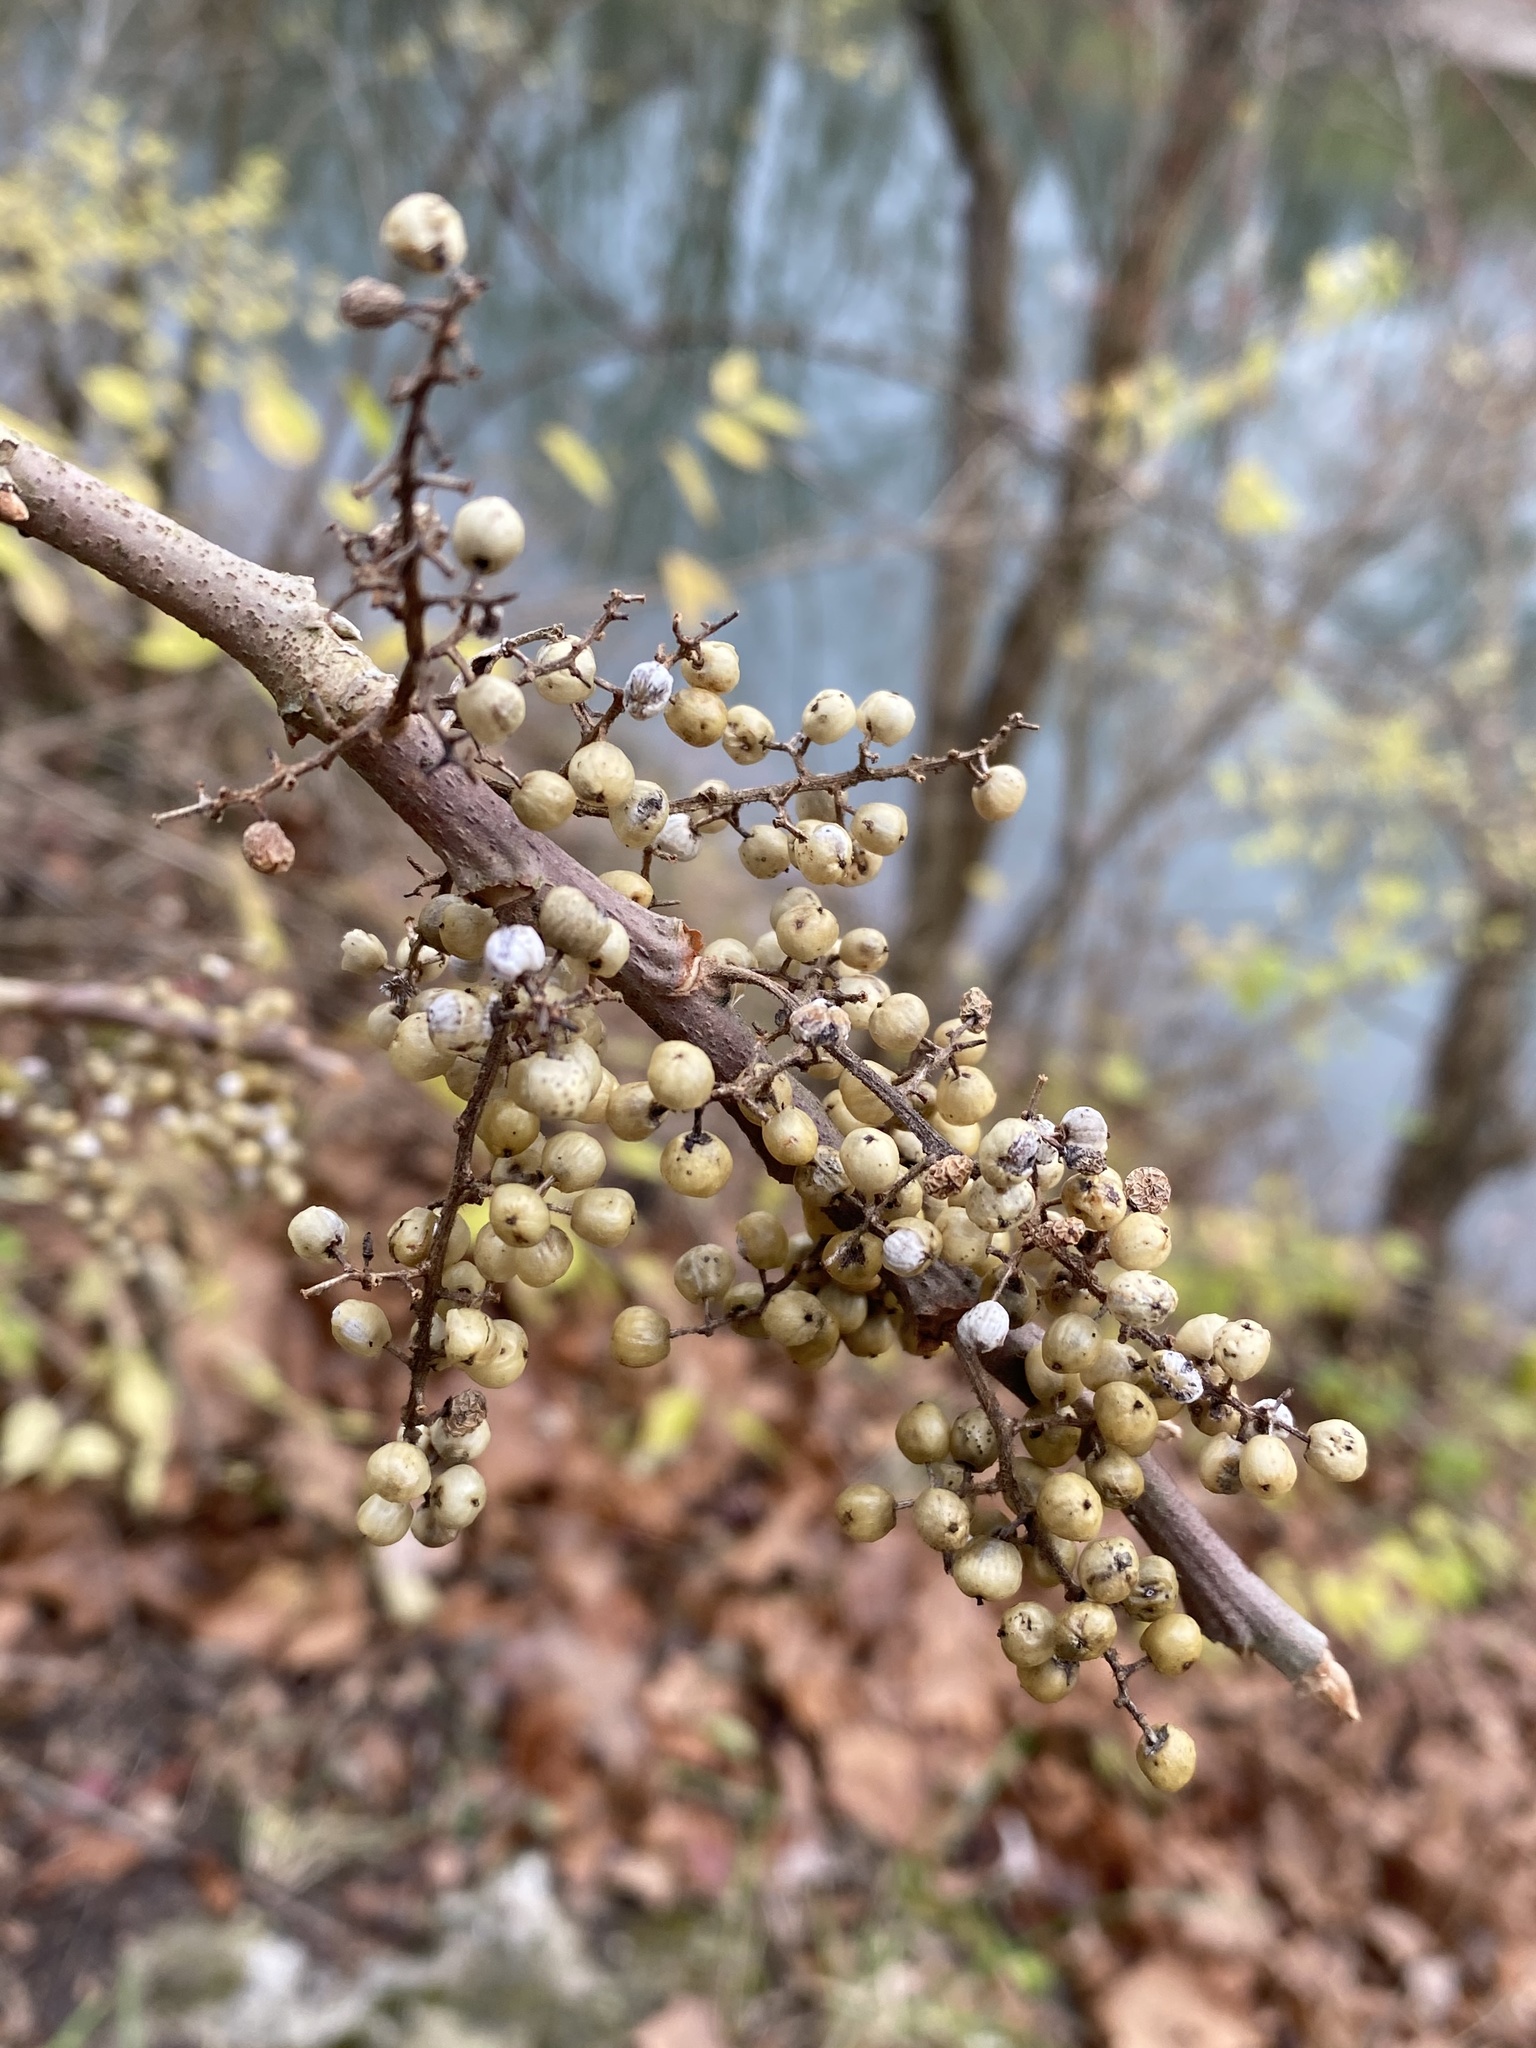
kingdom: Plantae
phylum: Tracheophyta
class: Magnoliopsida
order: Sapindales
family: Anacardiaceae
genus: Toxicodendron
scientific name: Toxicodendron radicans
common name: Poison ivy
